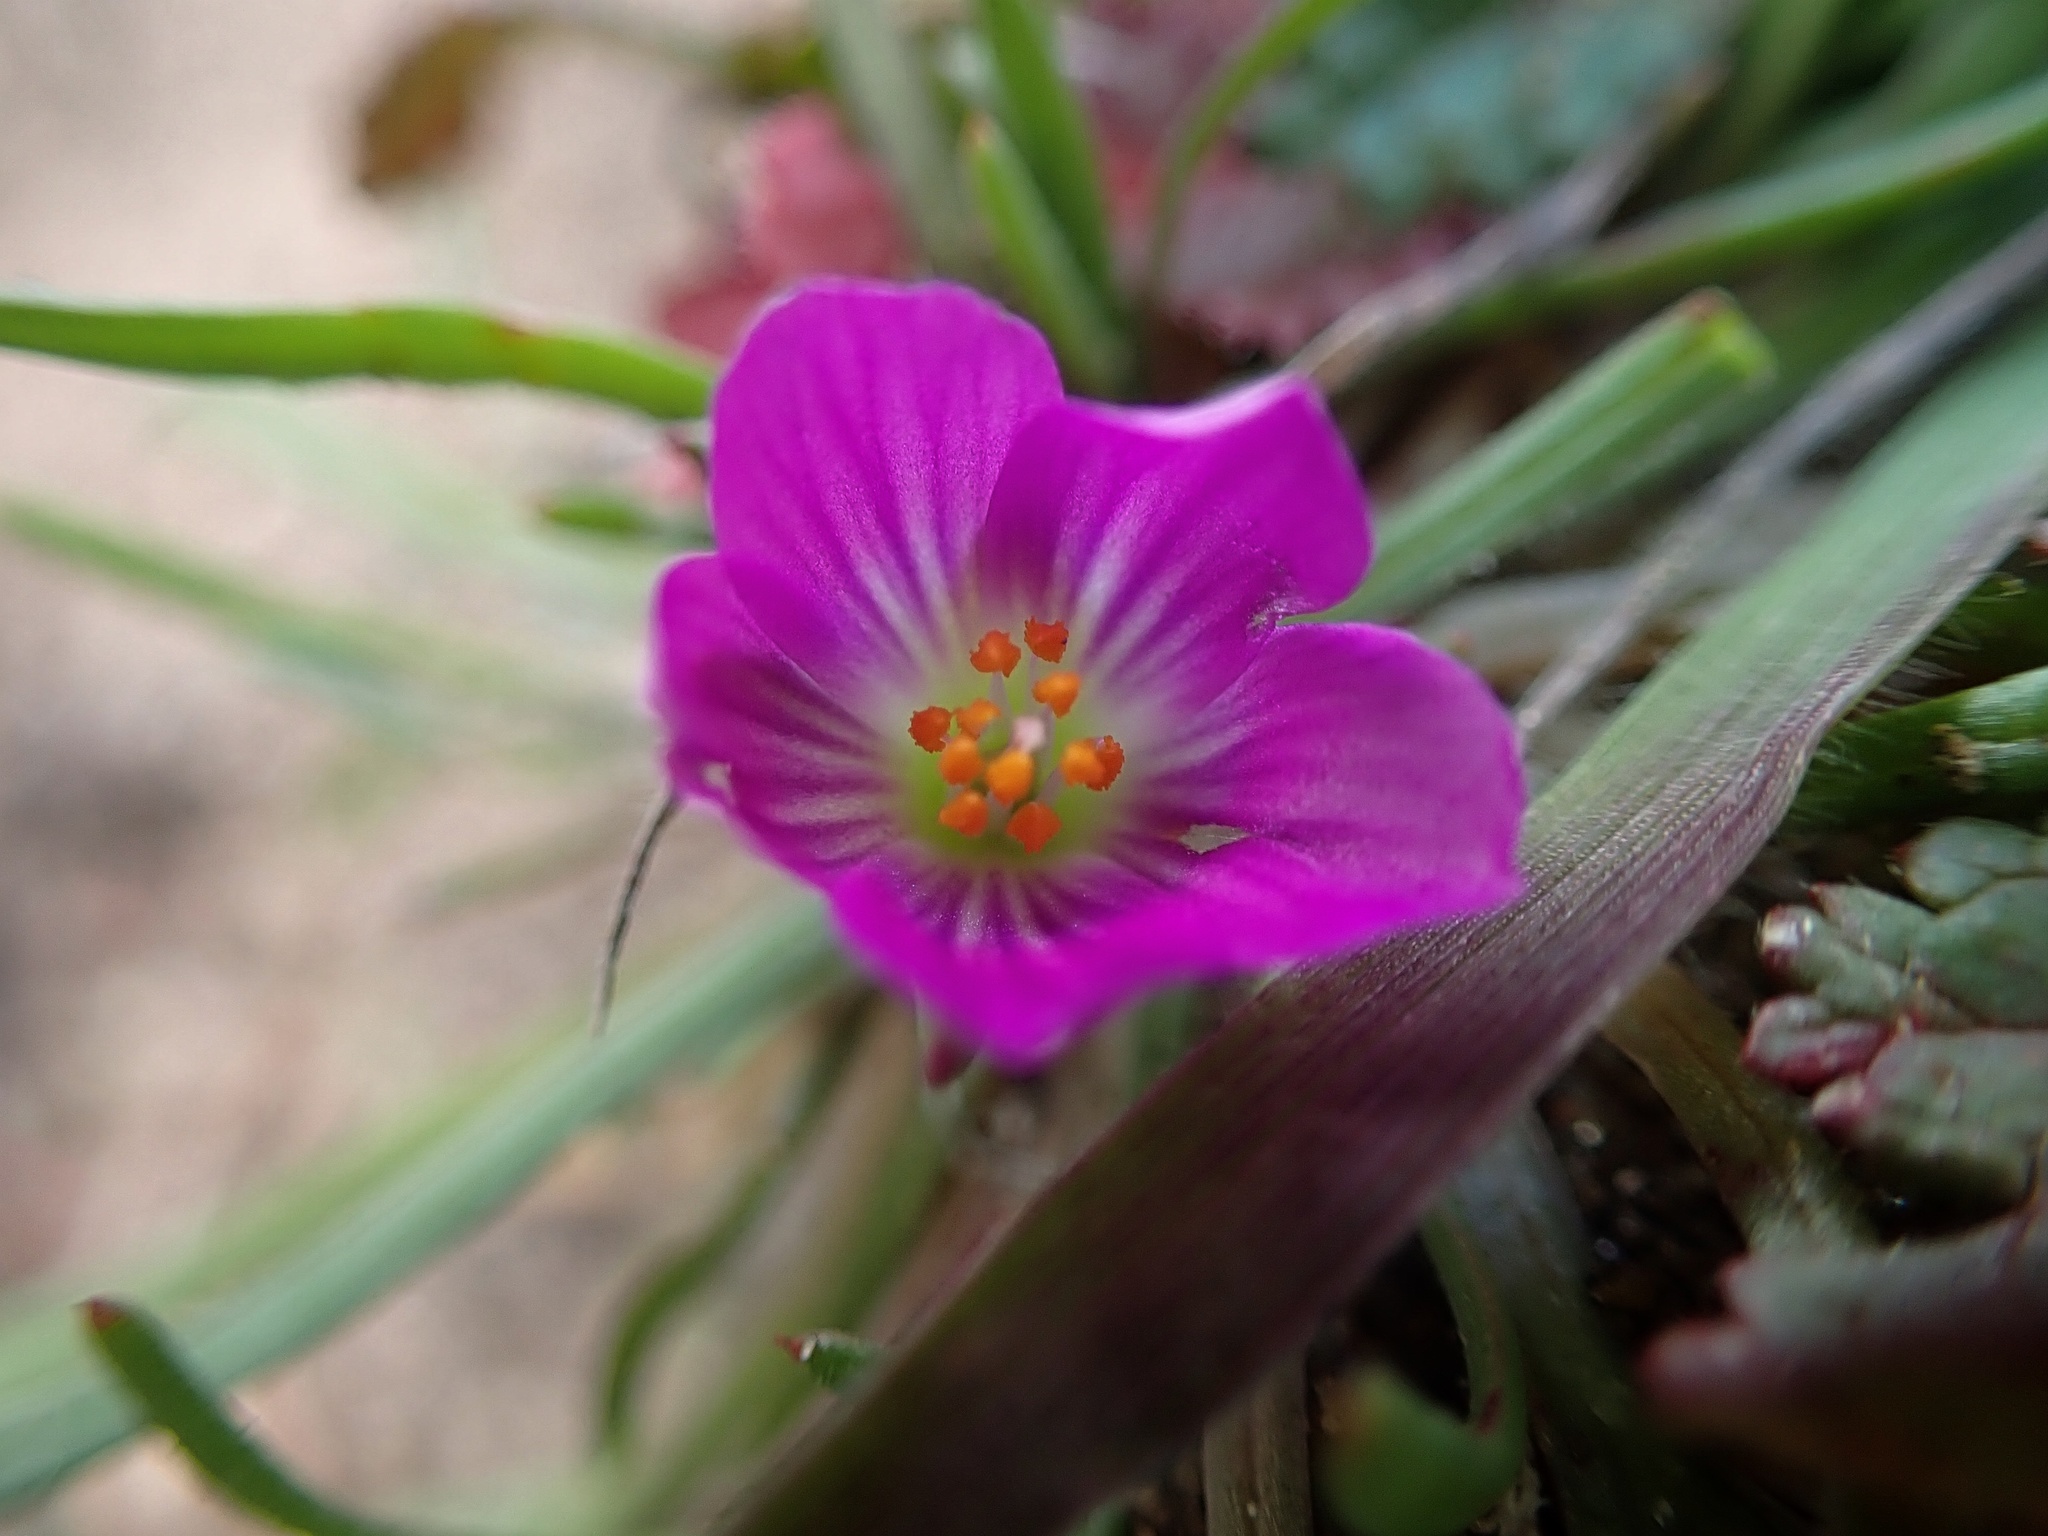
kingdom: Plantae
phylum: Tracheophyta
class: Magnoliopsida
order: Caryophyllales
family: Montiaceae
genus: Calandrinia
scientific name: Calandrinia menziesii
